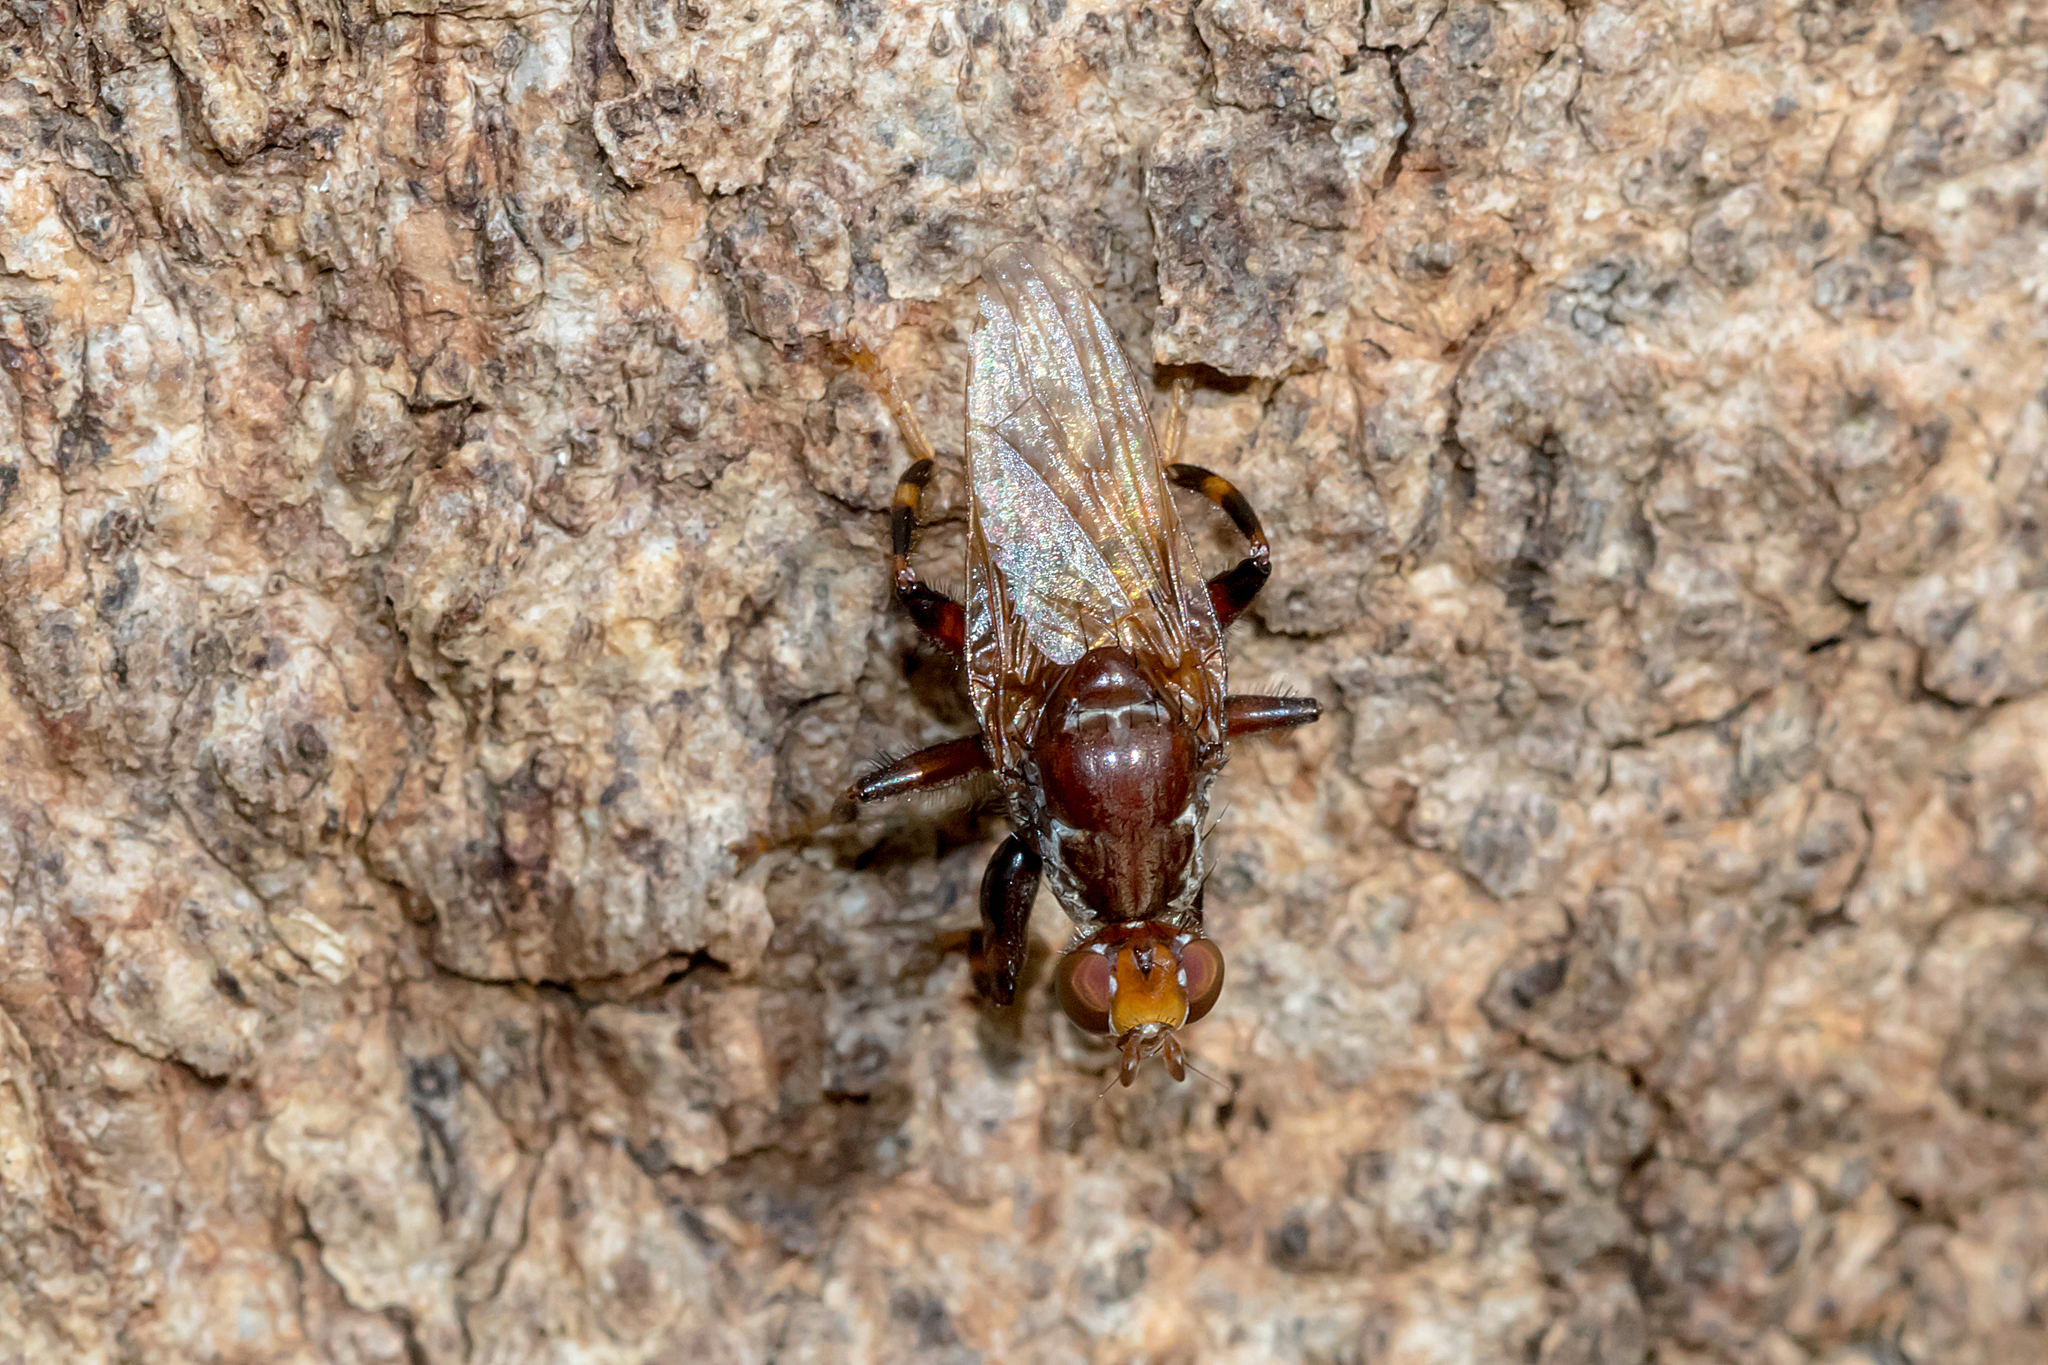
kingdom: Animalia
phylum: Arthropoda
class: Insecta
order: Diptera
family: Heleomyzidae
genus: Tapeigaster
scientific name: Tapeigaster brunneifrons
